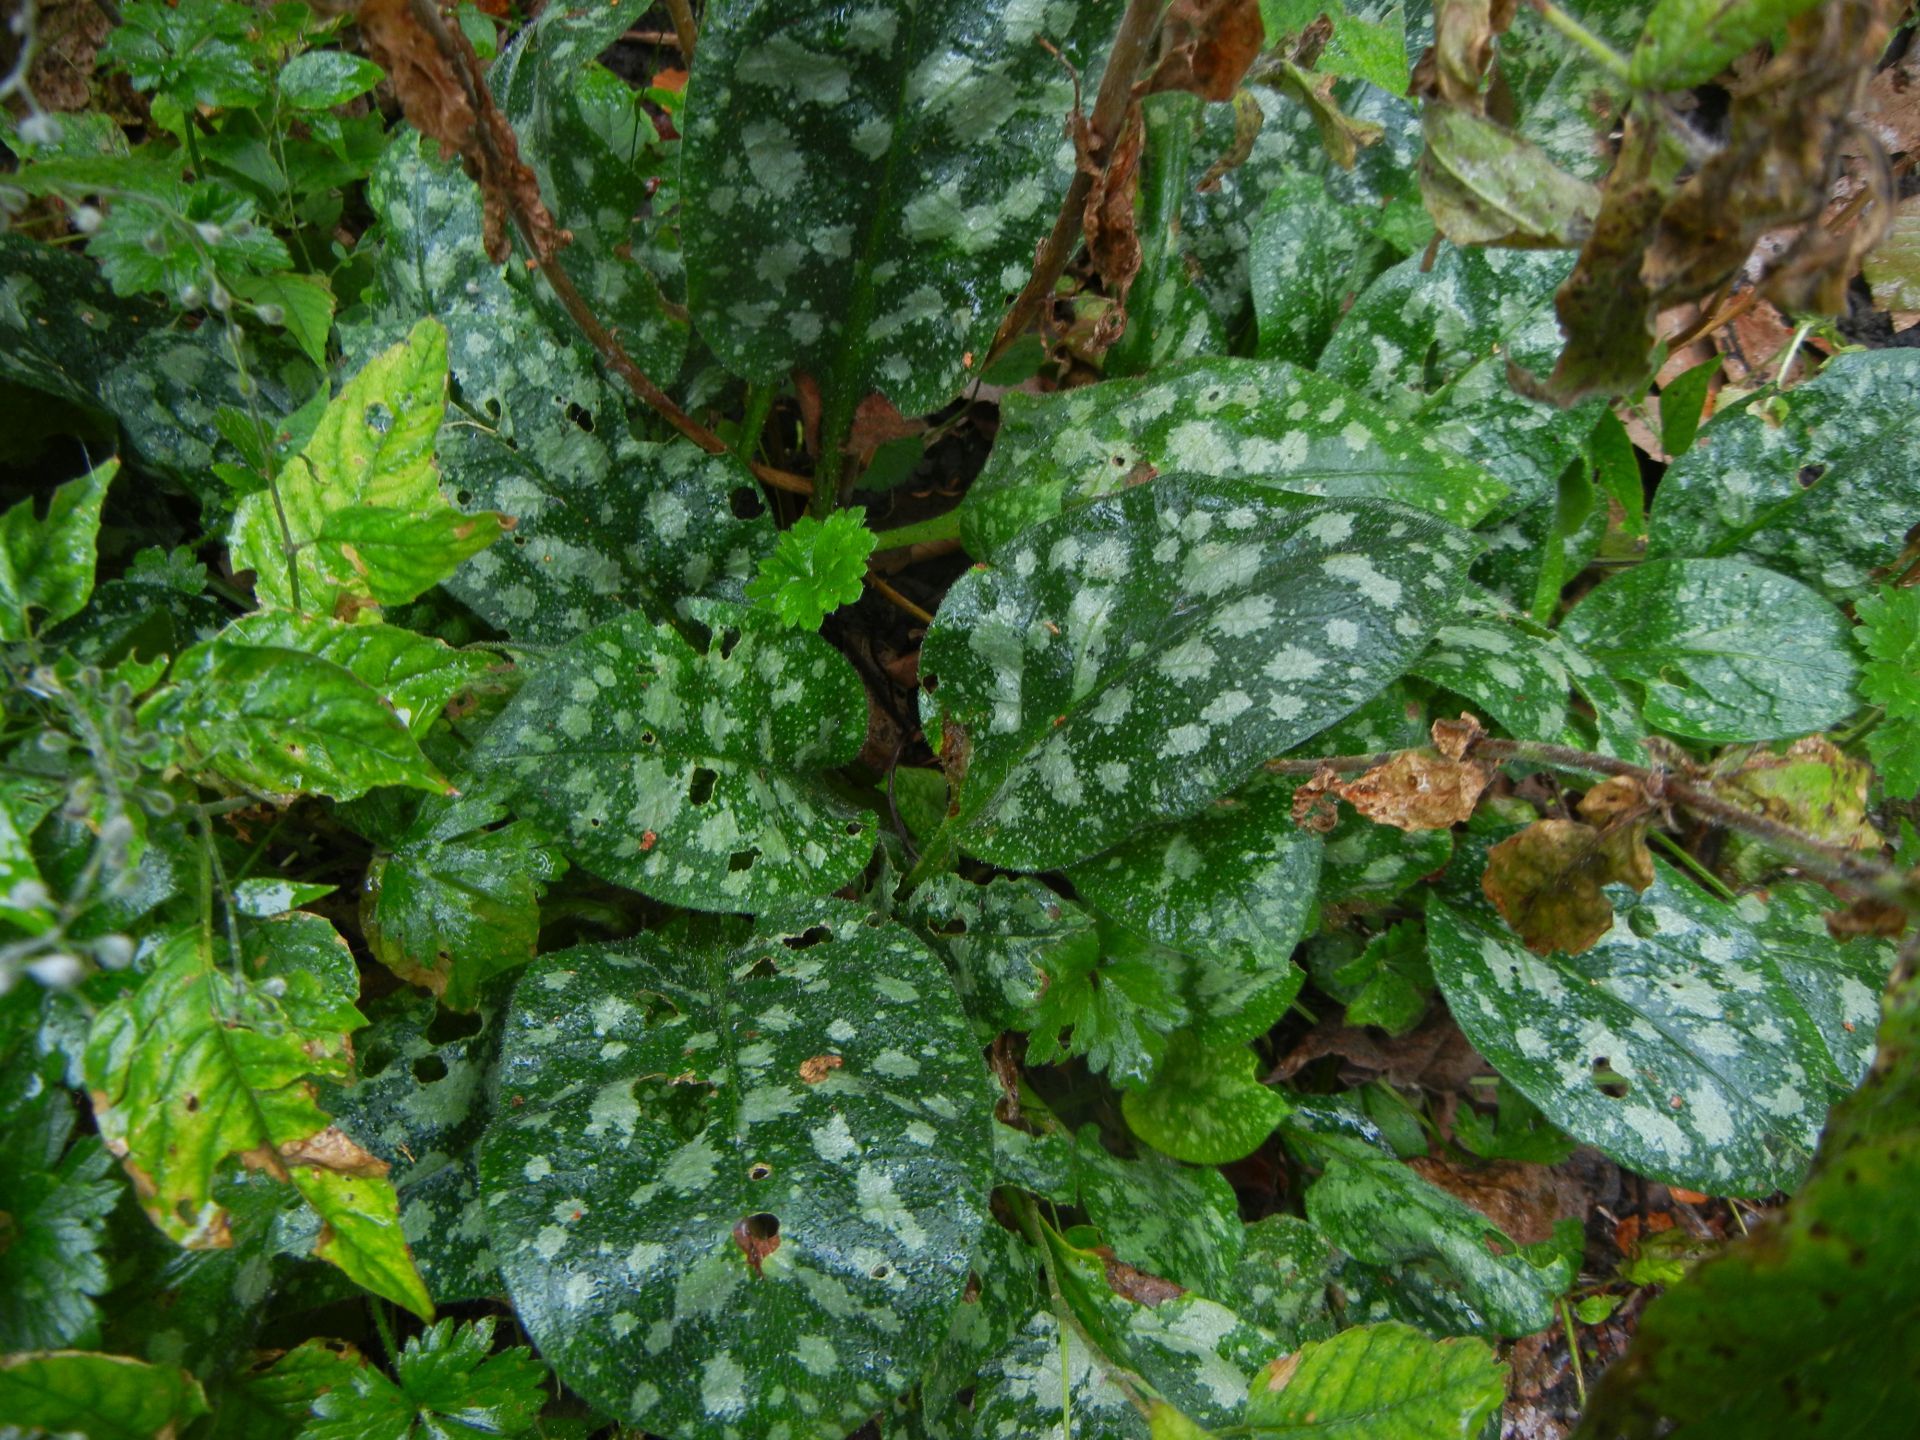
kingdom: Plantae
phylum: Tracheophyta
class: Magnoliopsida
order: Boraginales
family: Boraginaceae
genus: Pulmonaria
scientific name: Pulmonaria officinalis
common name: Lungwort
